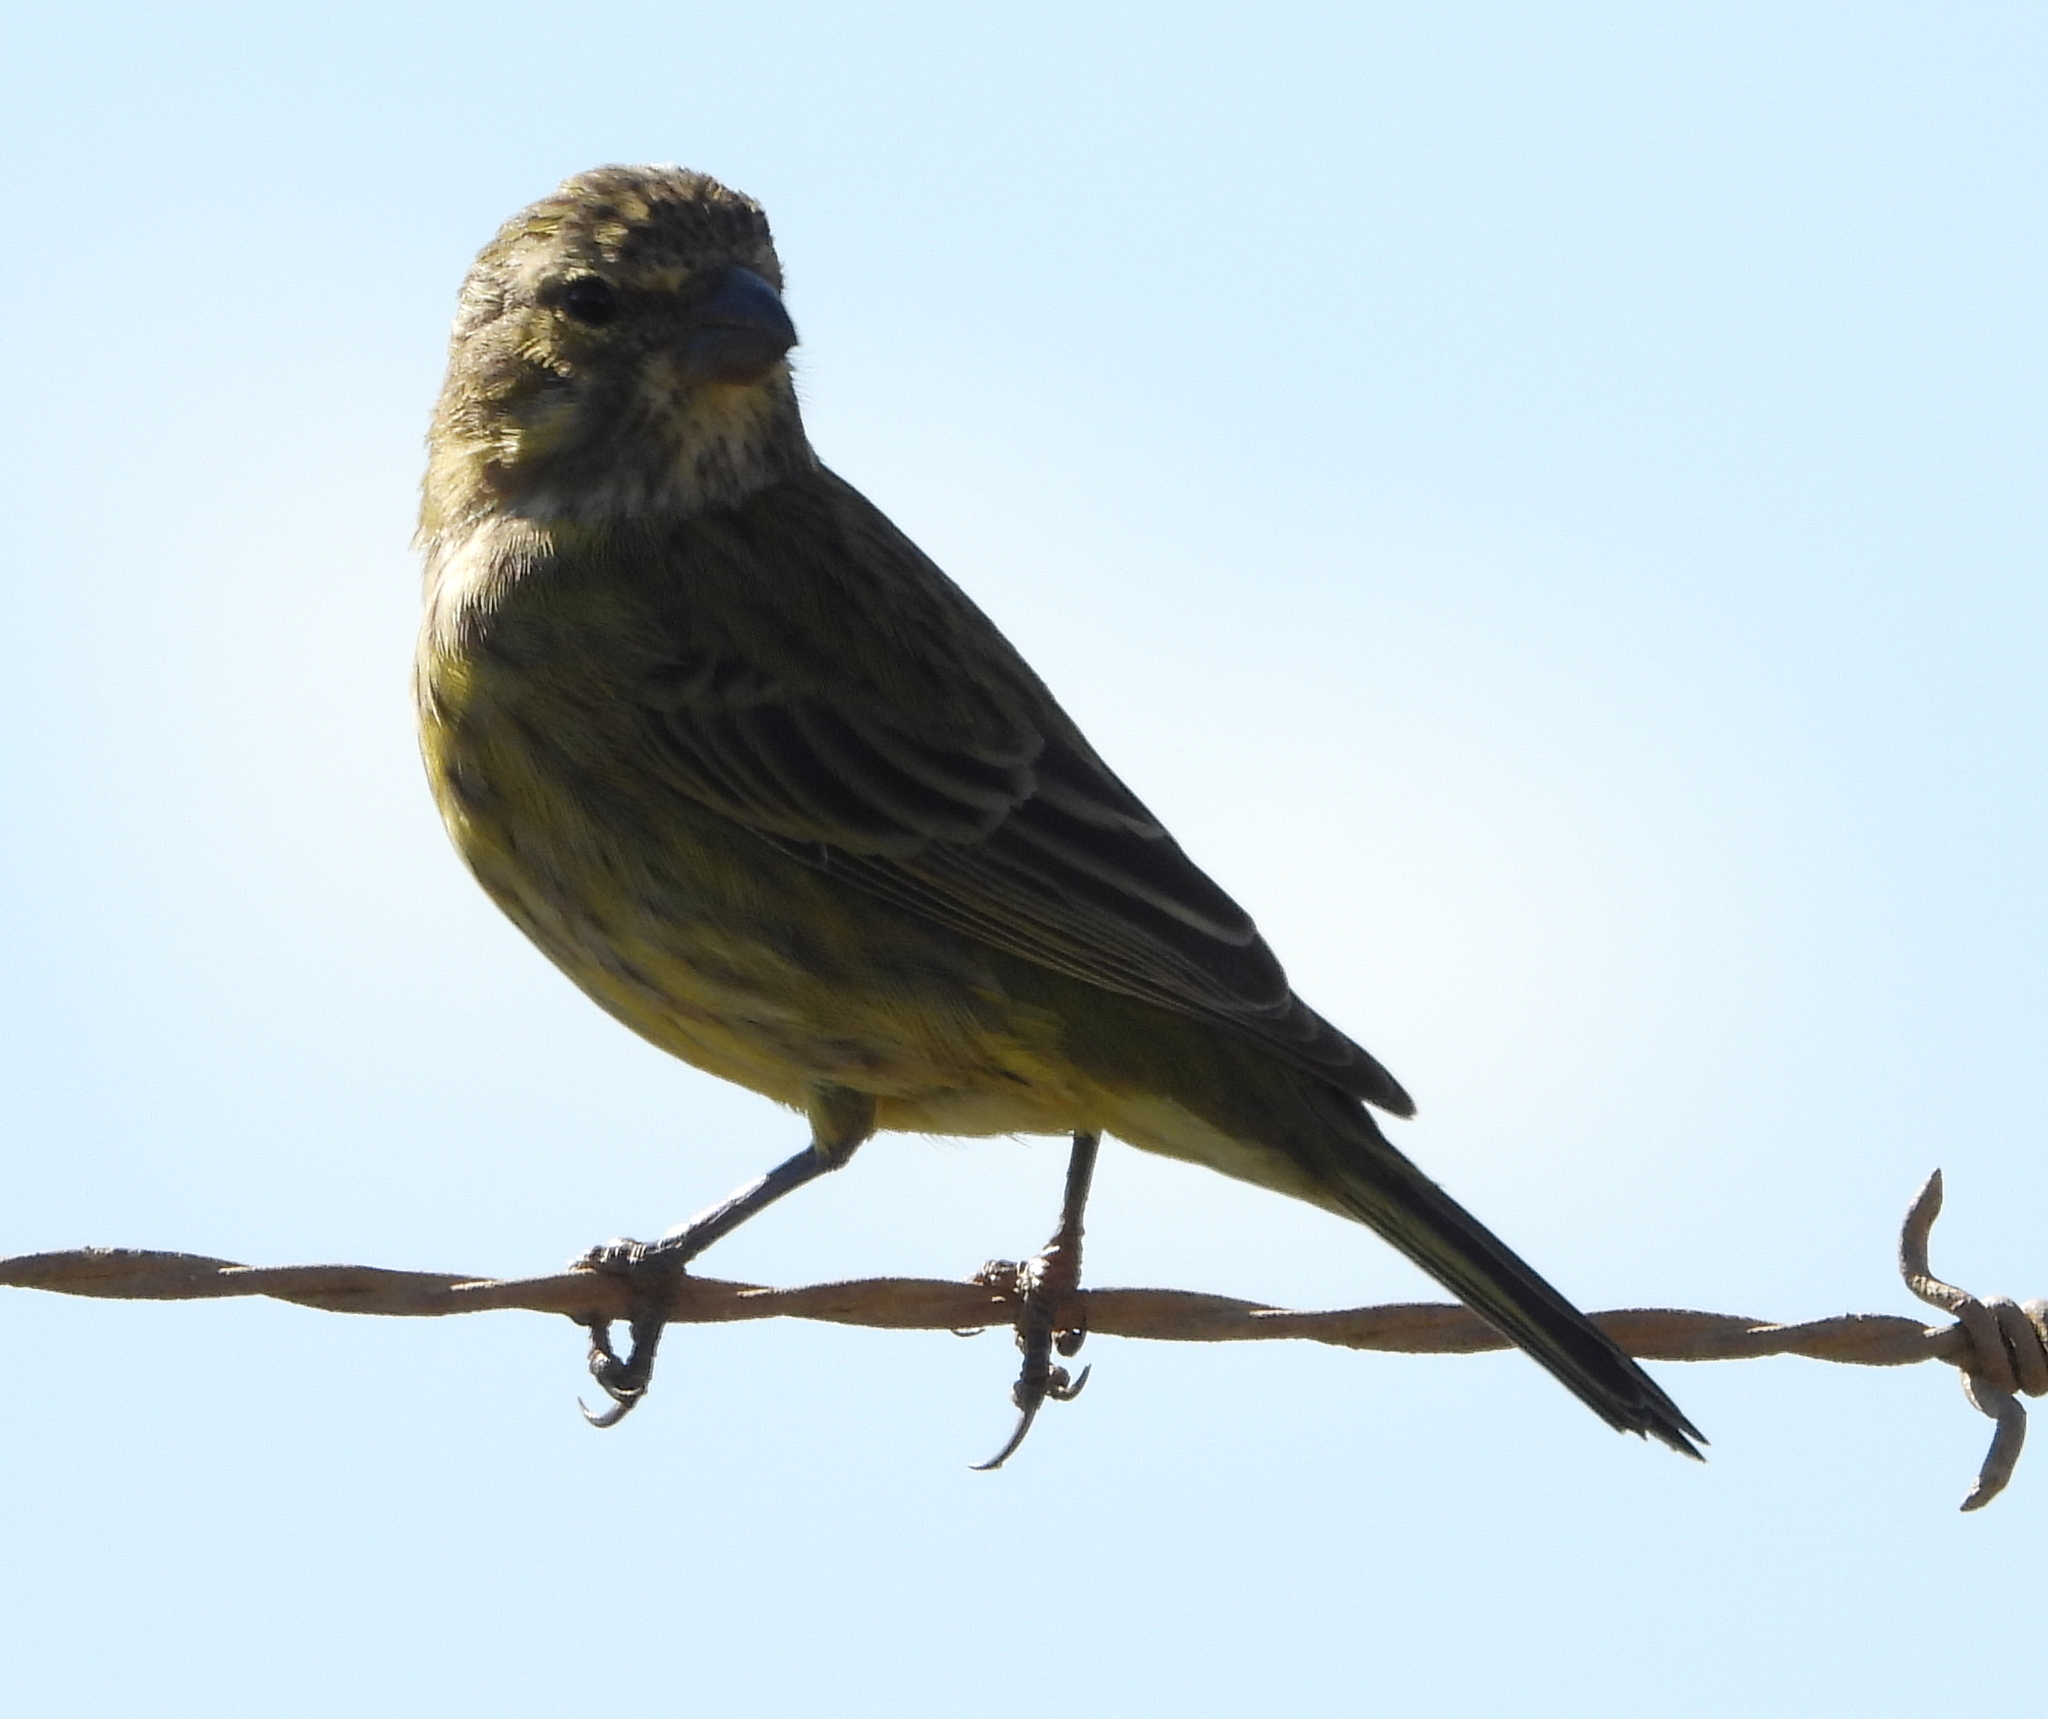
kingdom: Animalia
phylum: Chordata
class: Aves
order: Passeriformes
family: Fringillidae
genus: Crithagra
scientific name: Crithagra flaviventris
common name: Yellow canary
